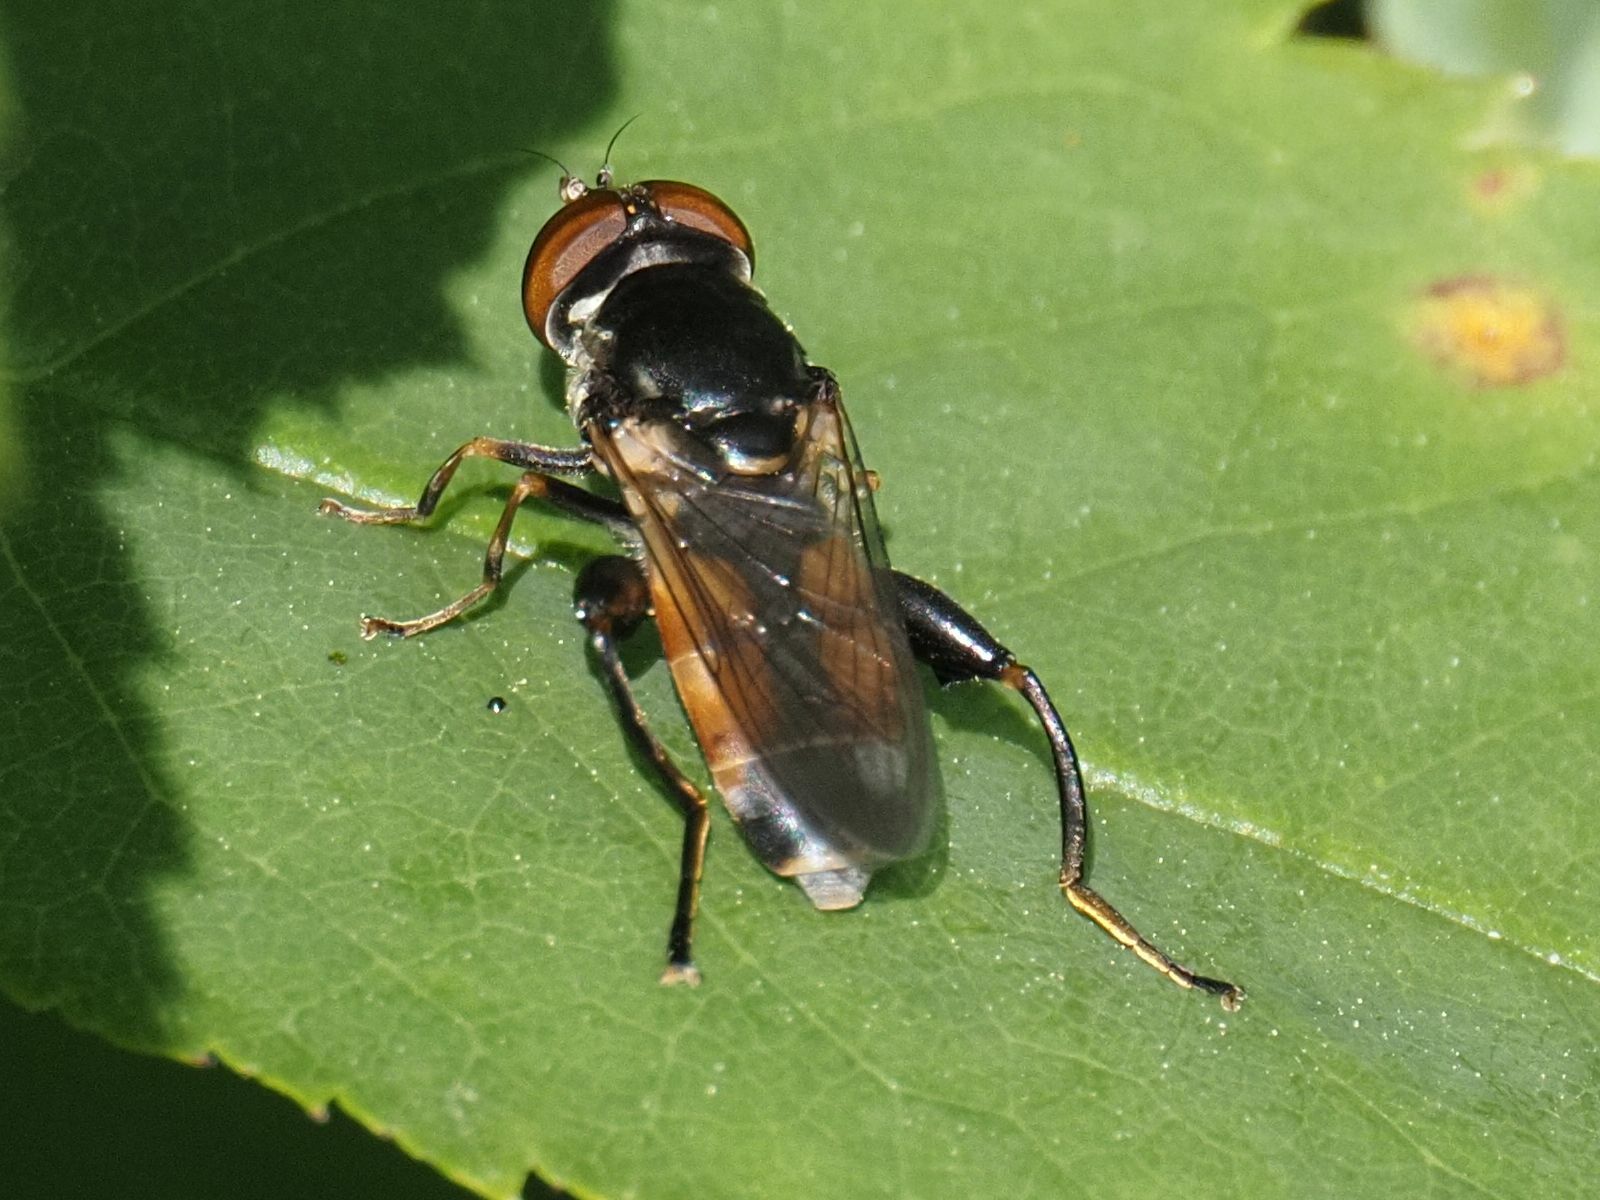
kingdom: Animalia
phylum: Arthropoda
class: Insecta
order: Diptera
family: Syrphidae
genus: Tropidia
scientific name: Tropidia scita
